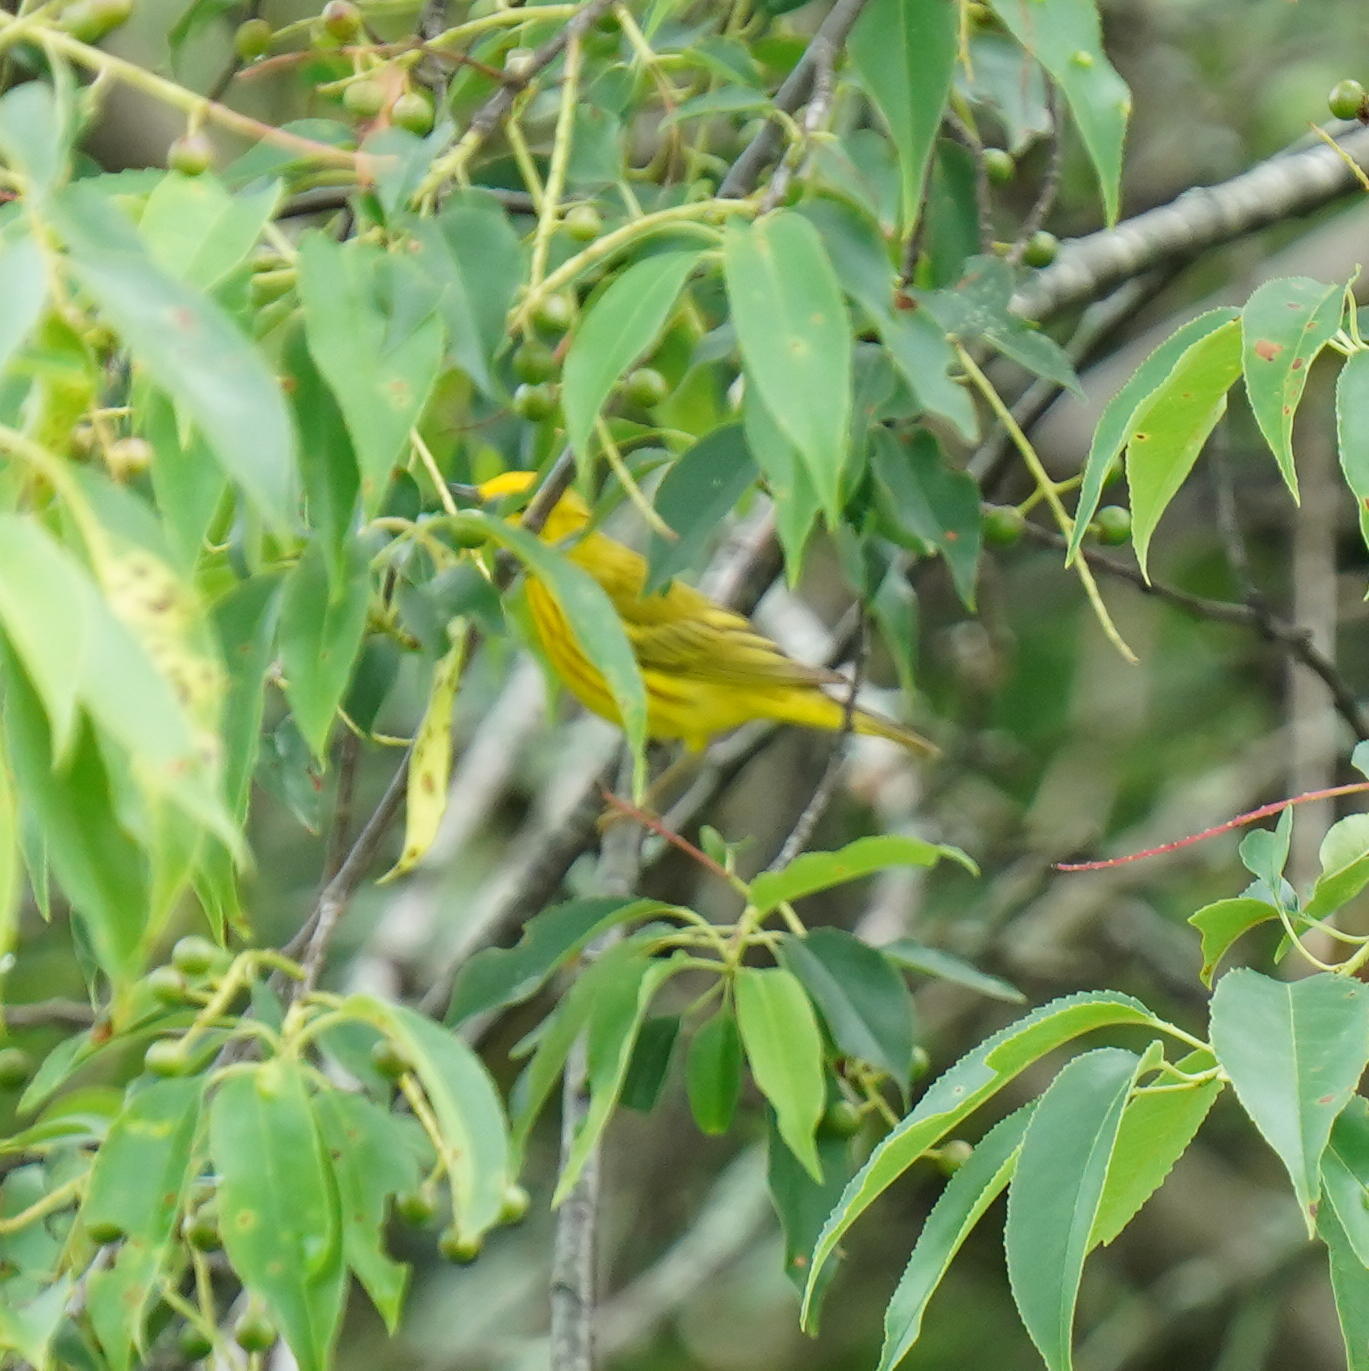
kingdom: Animalia
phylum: Chordata
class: Aves
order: Passeriformes
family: Parulidae
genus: Setophaga
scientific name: Setophaga petechia
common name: Yellow warbler
